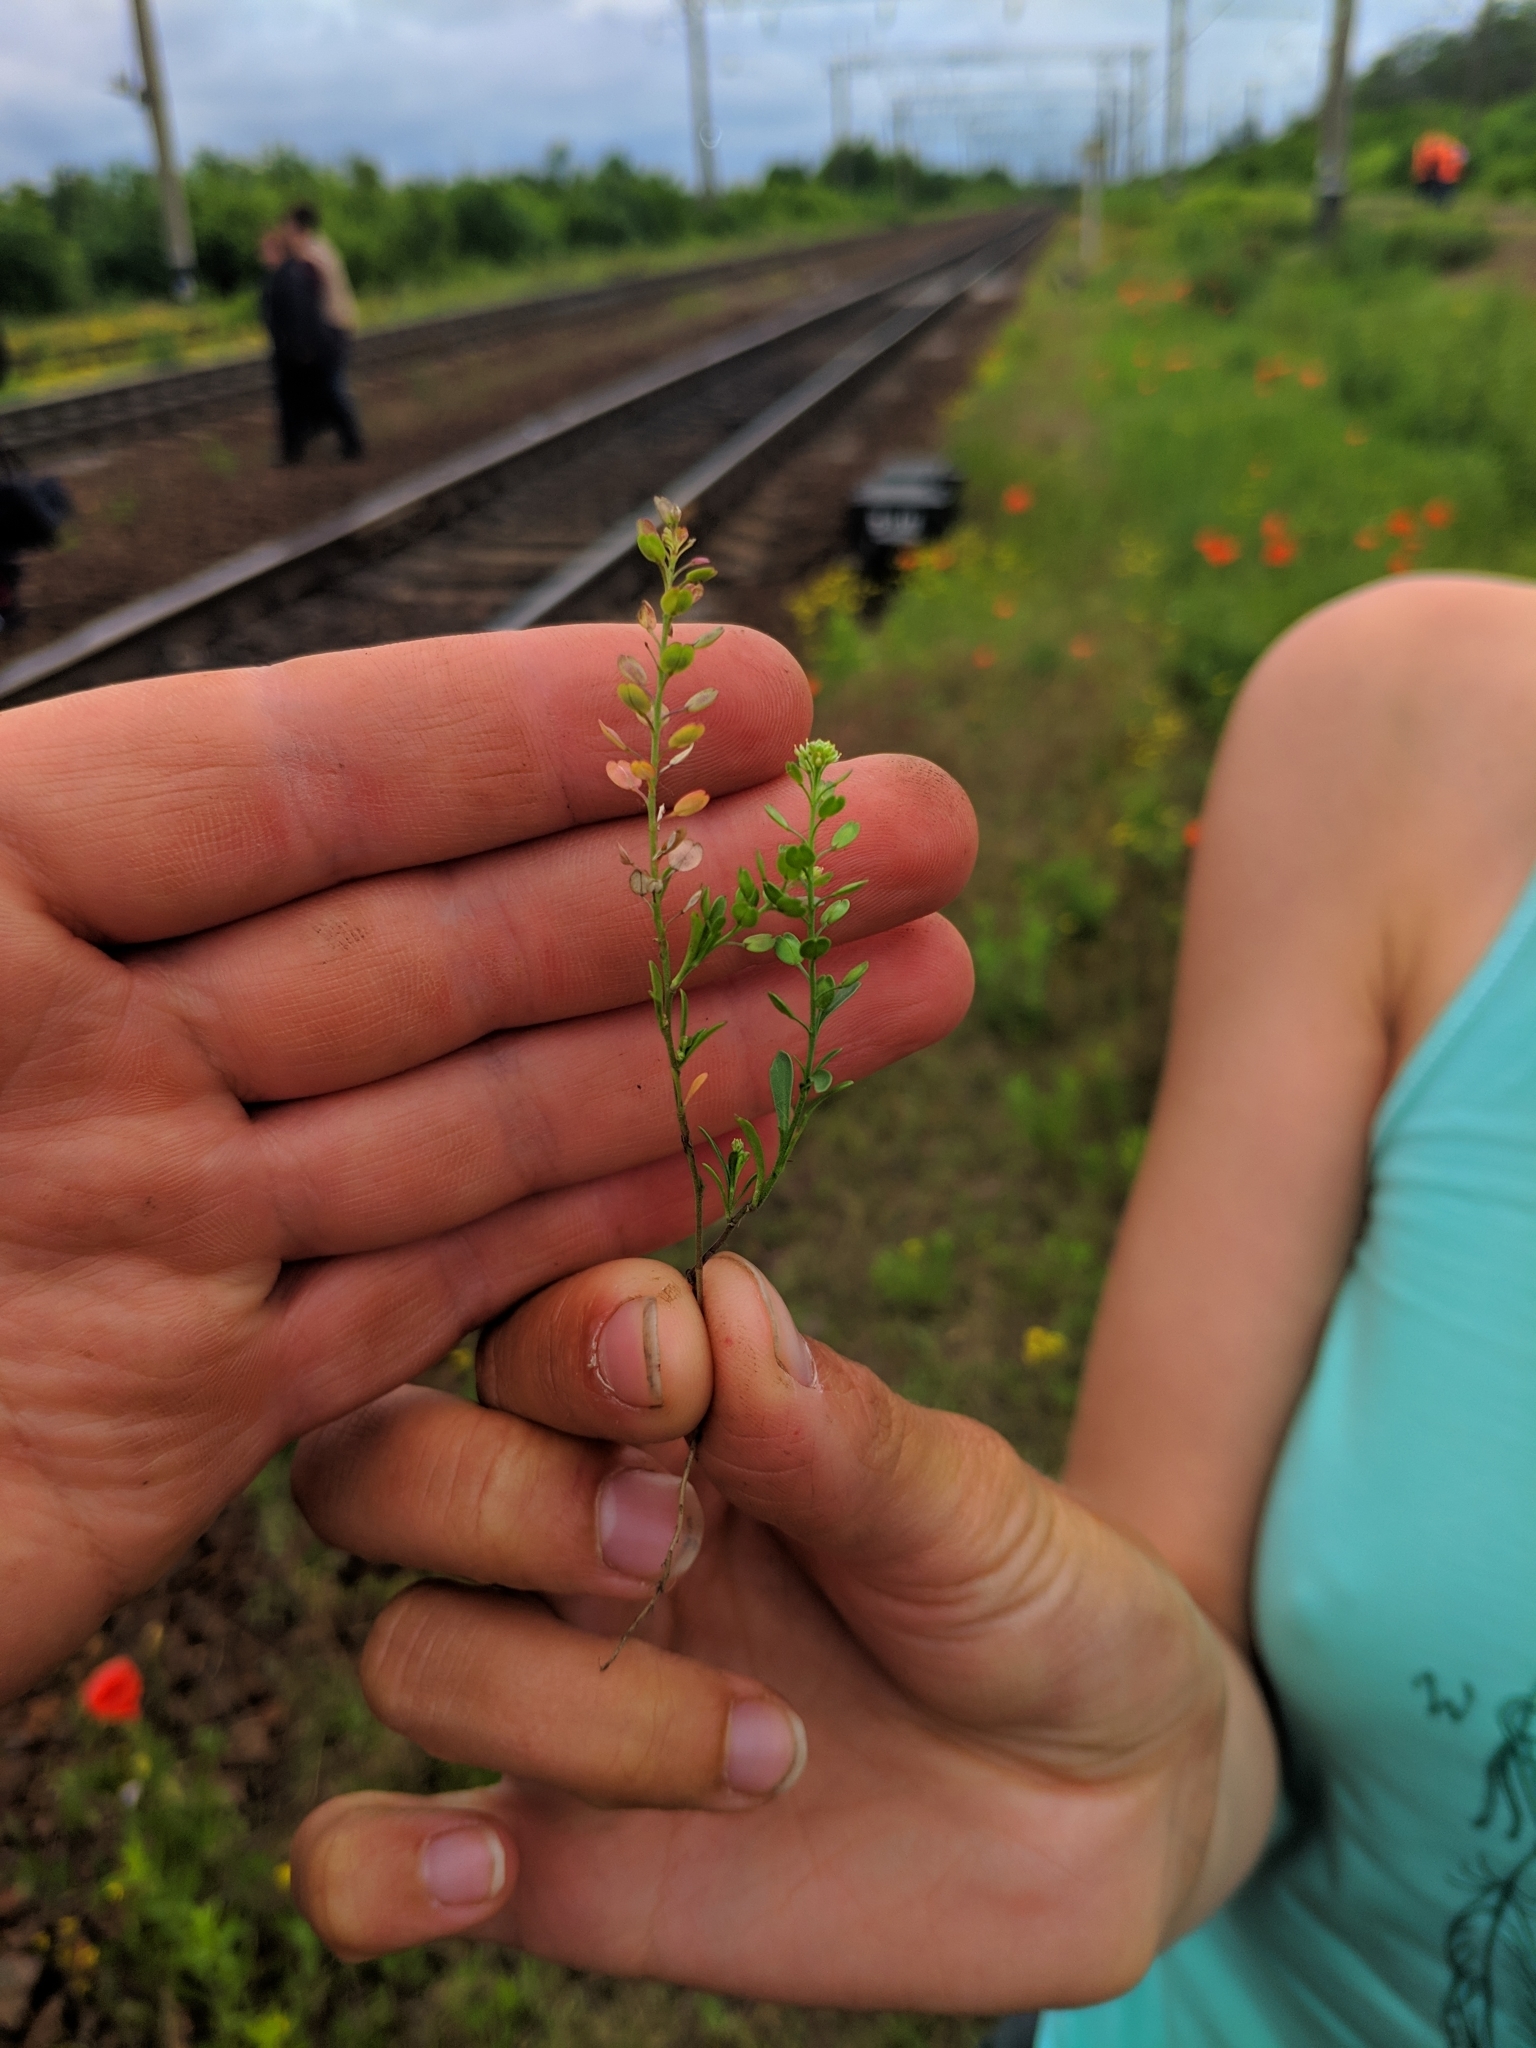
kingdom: Plantae
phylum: Tracheophyta
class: Magnoliopsida
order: Brassicales
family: Brassicaceae
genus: Lepidium
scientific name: Lepidium densiflorum
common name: Miner's pepperwort
